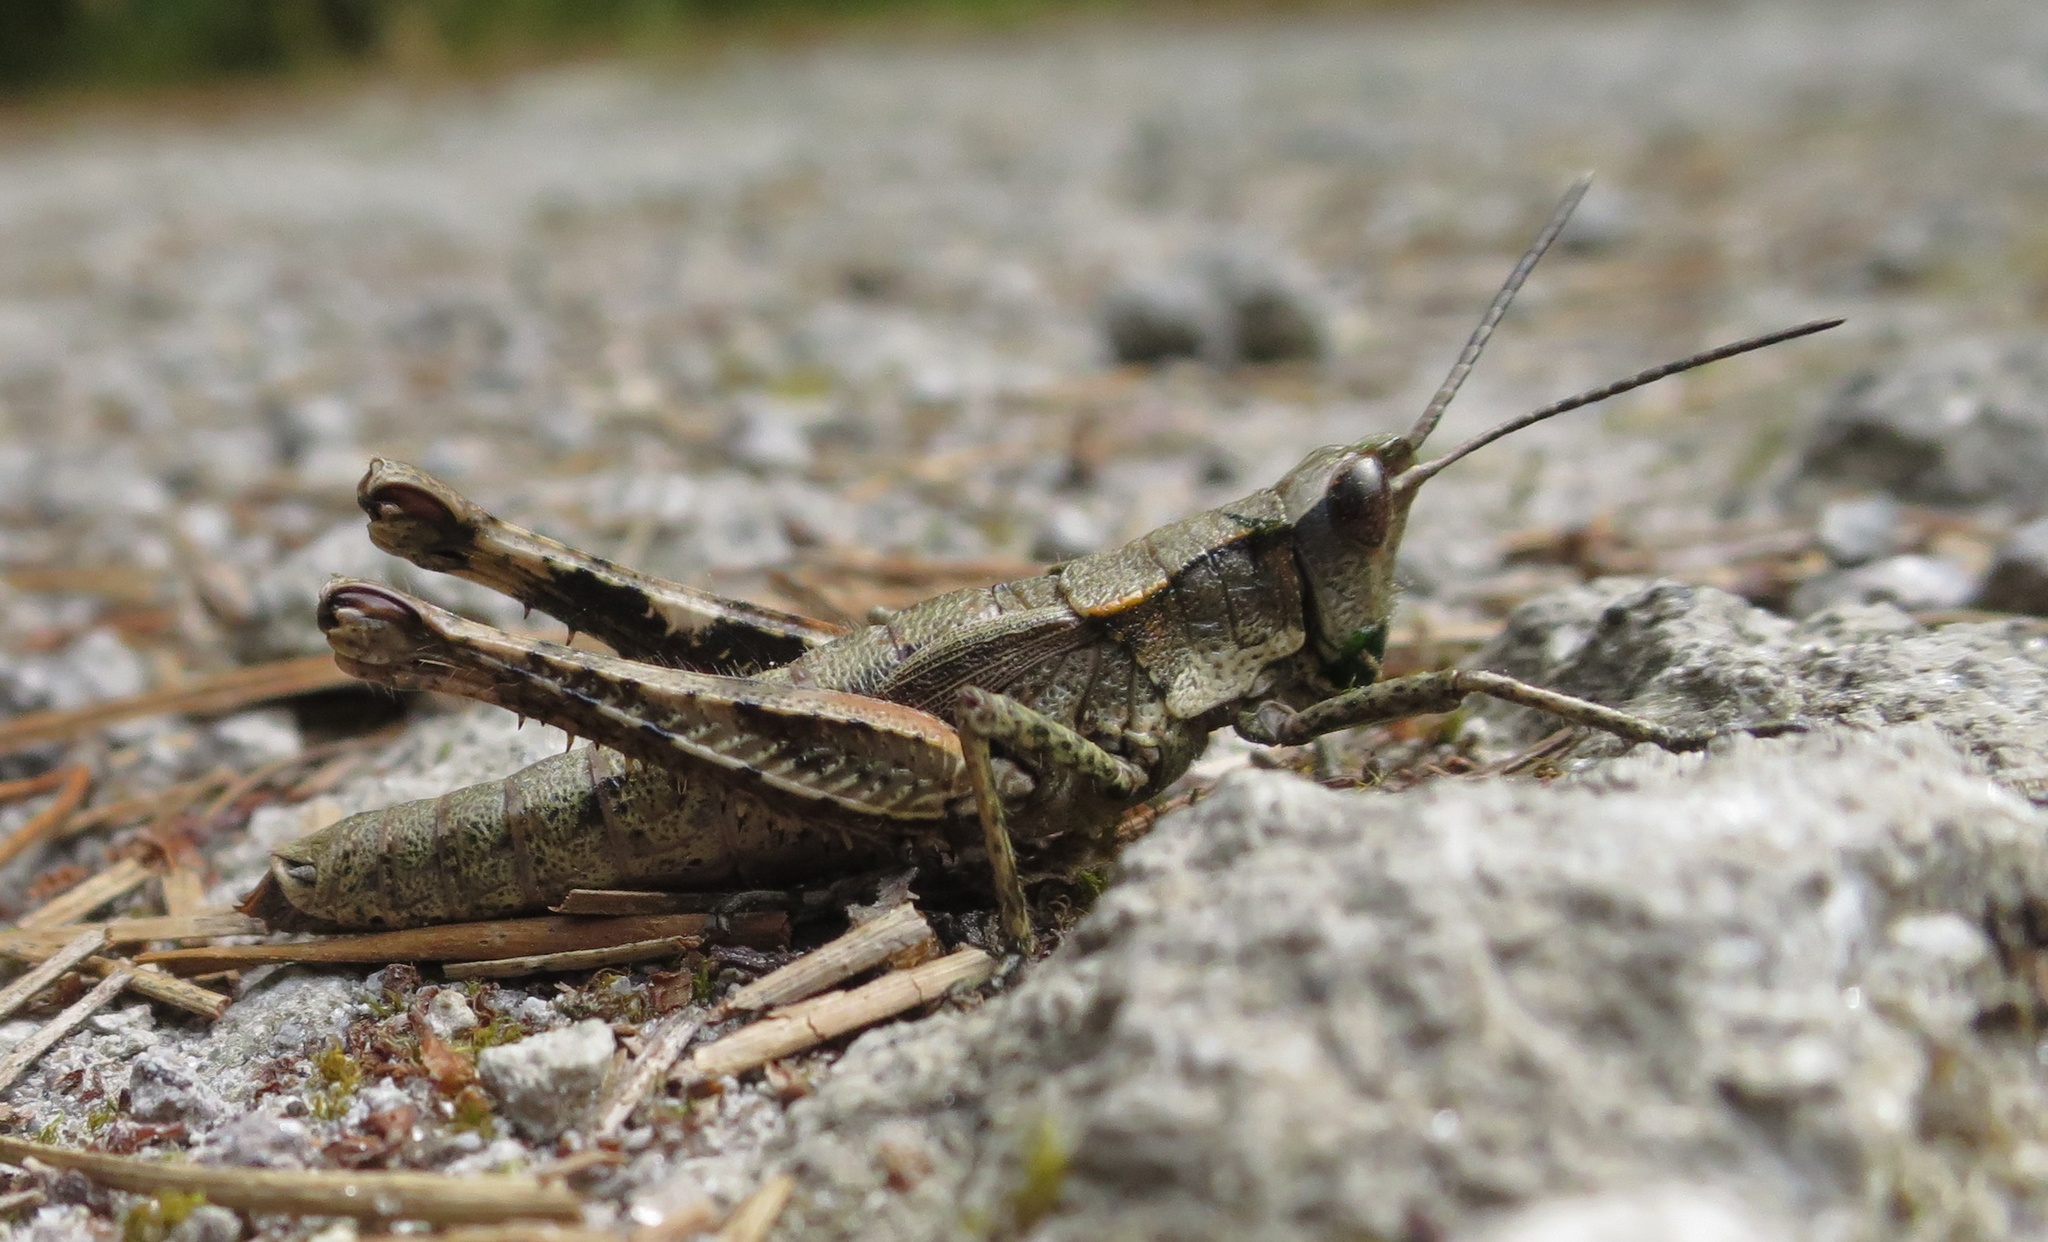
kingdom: Animalia
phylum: Arthropoda
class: Insecta
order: Orthoptera
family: Acrididae
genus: Sigaus
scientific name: Sigaus piliferus
